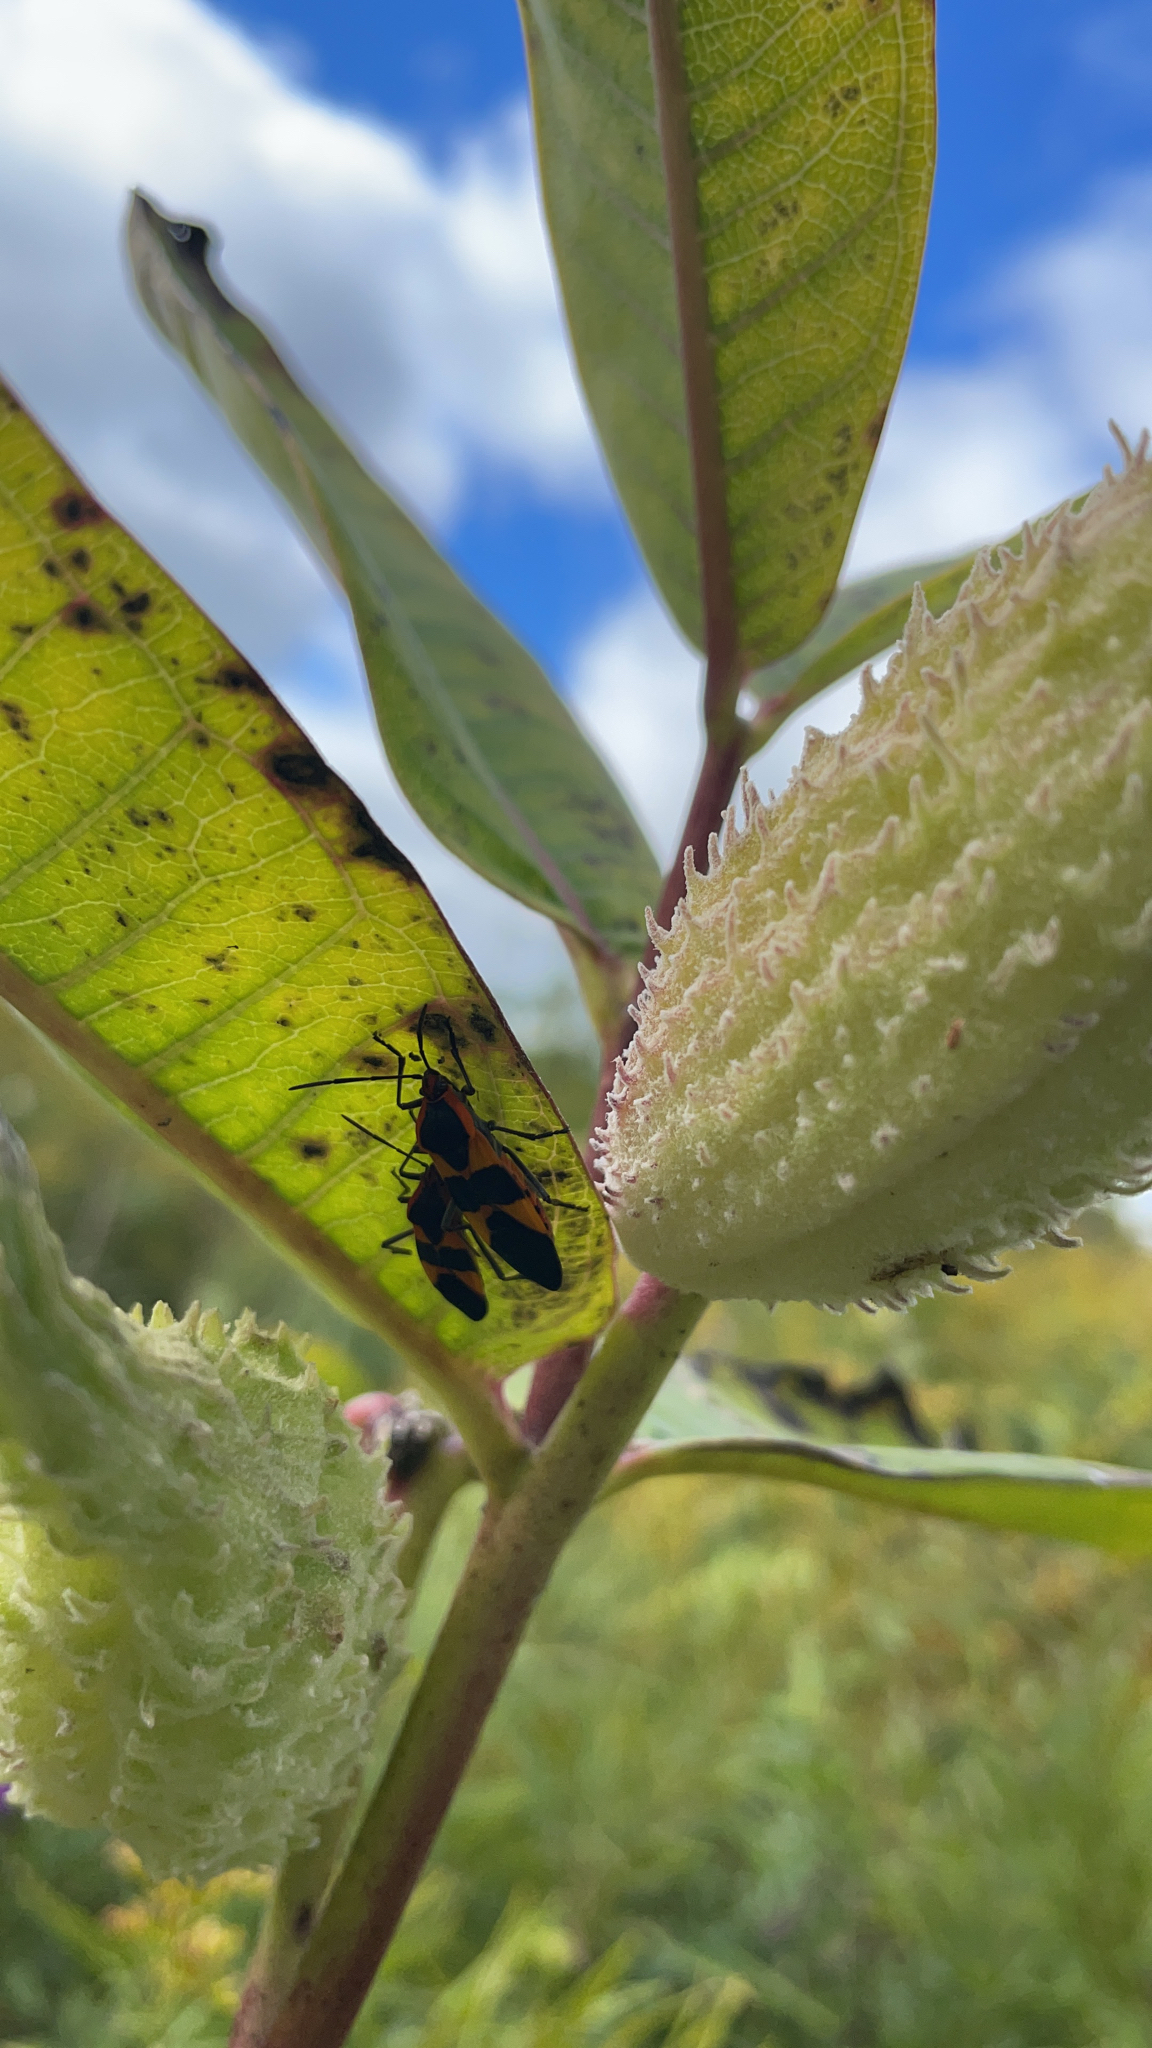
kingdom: Animalia
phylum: Arthropoda
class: Insecta
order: Hemiptera
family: Lygaeidae
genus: Oncopeltus
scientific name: Oncopeltus fasciatus
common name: Large milkweed bug
